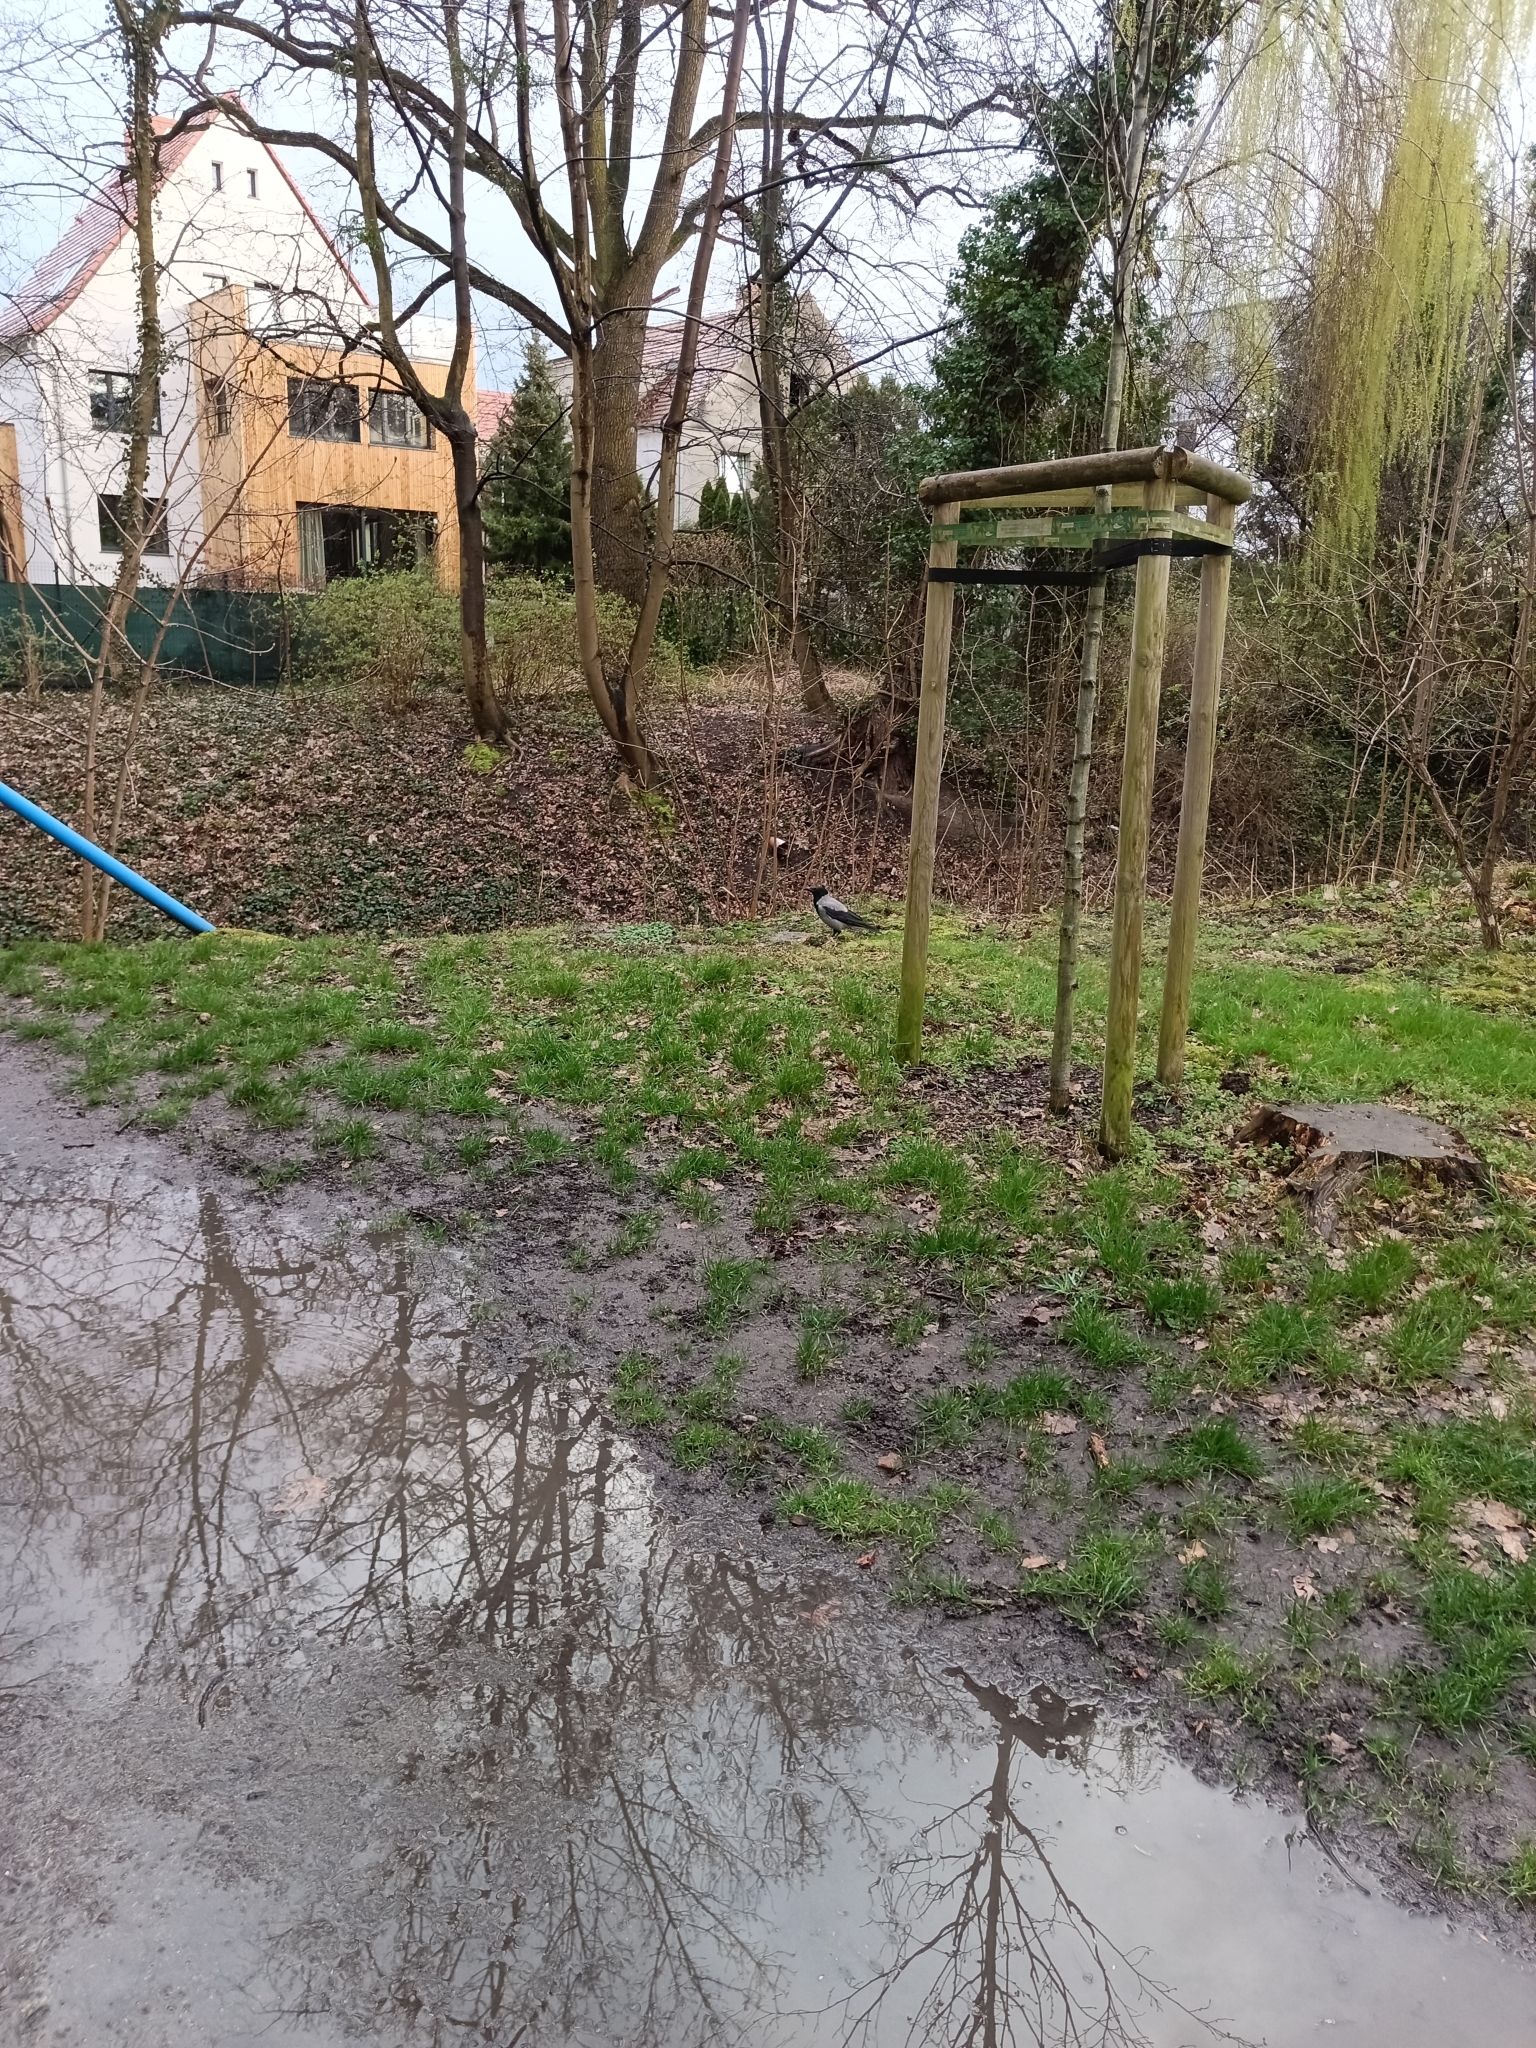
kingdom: Animalia
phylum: Chordata
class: Aves
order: Passeriformes
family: Corvidae
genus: Corvus
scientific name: Corvus cornix
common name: Hooded crow
